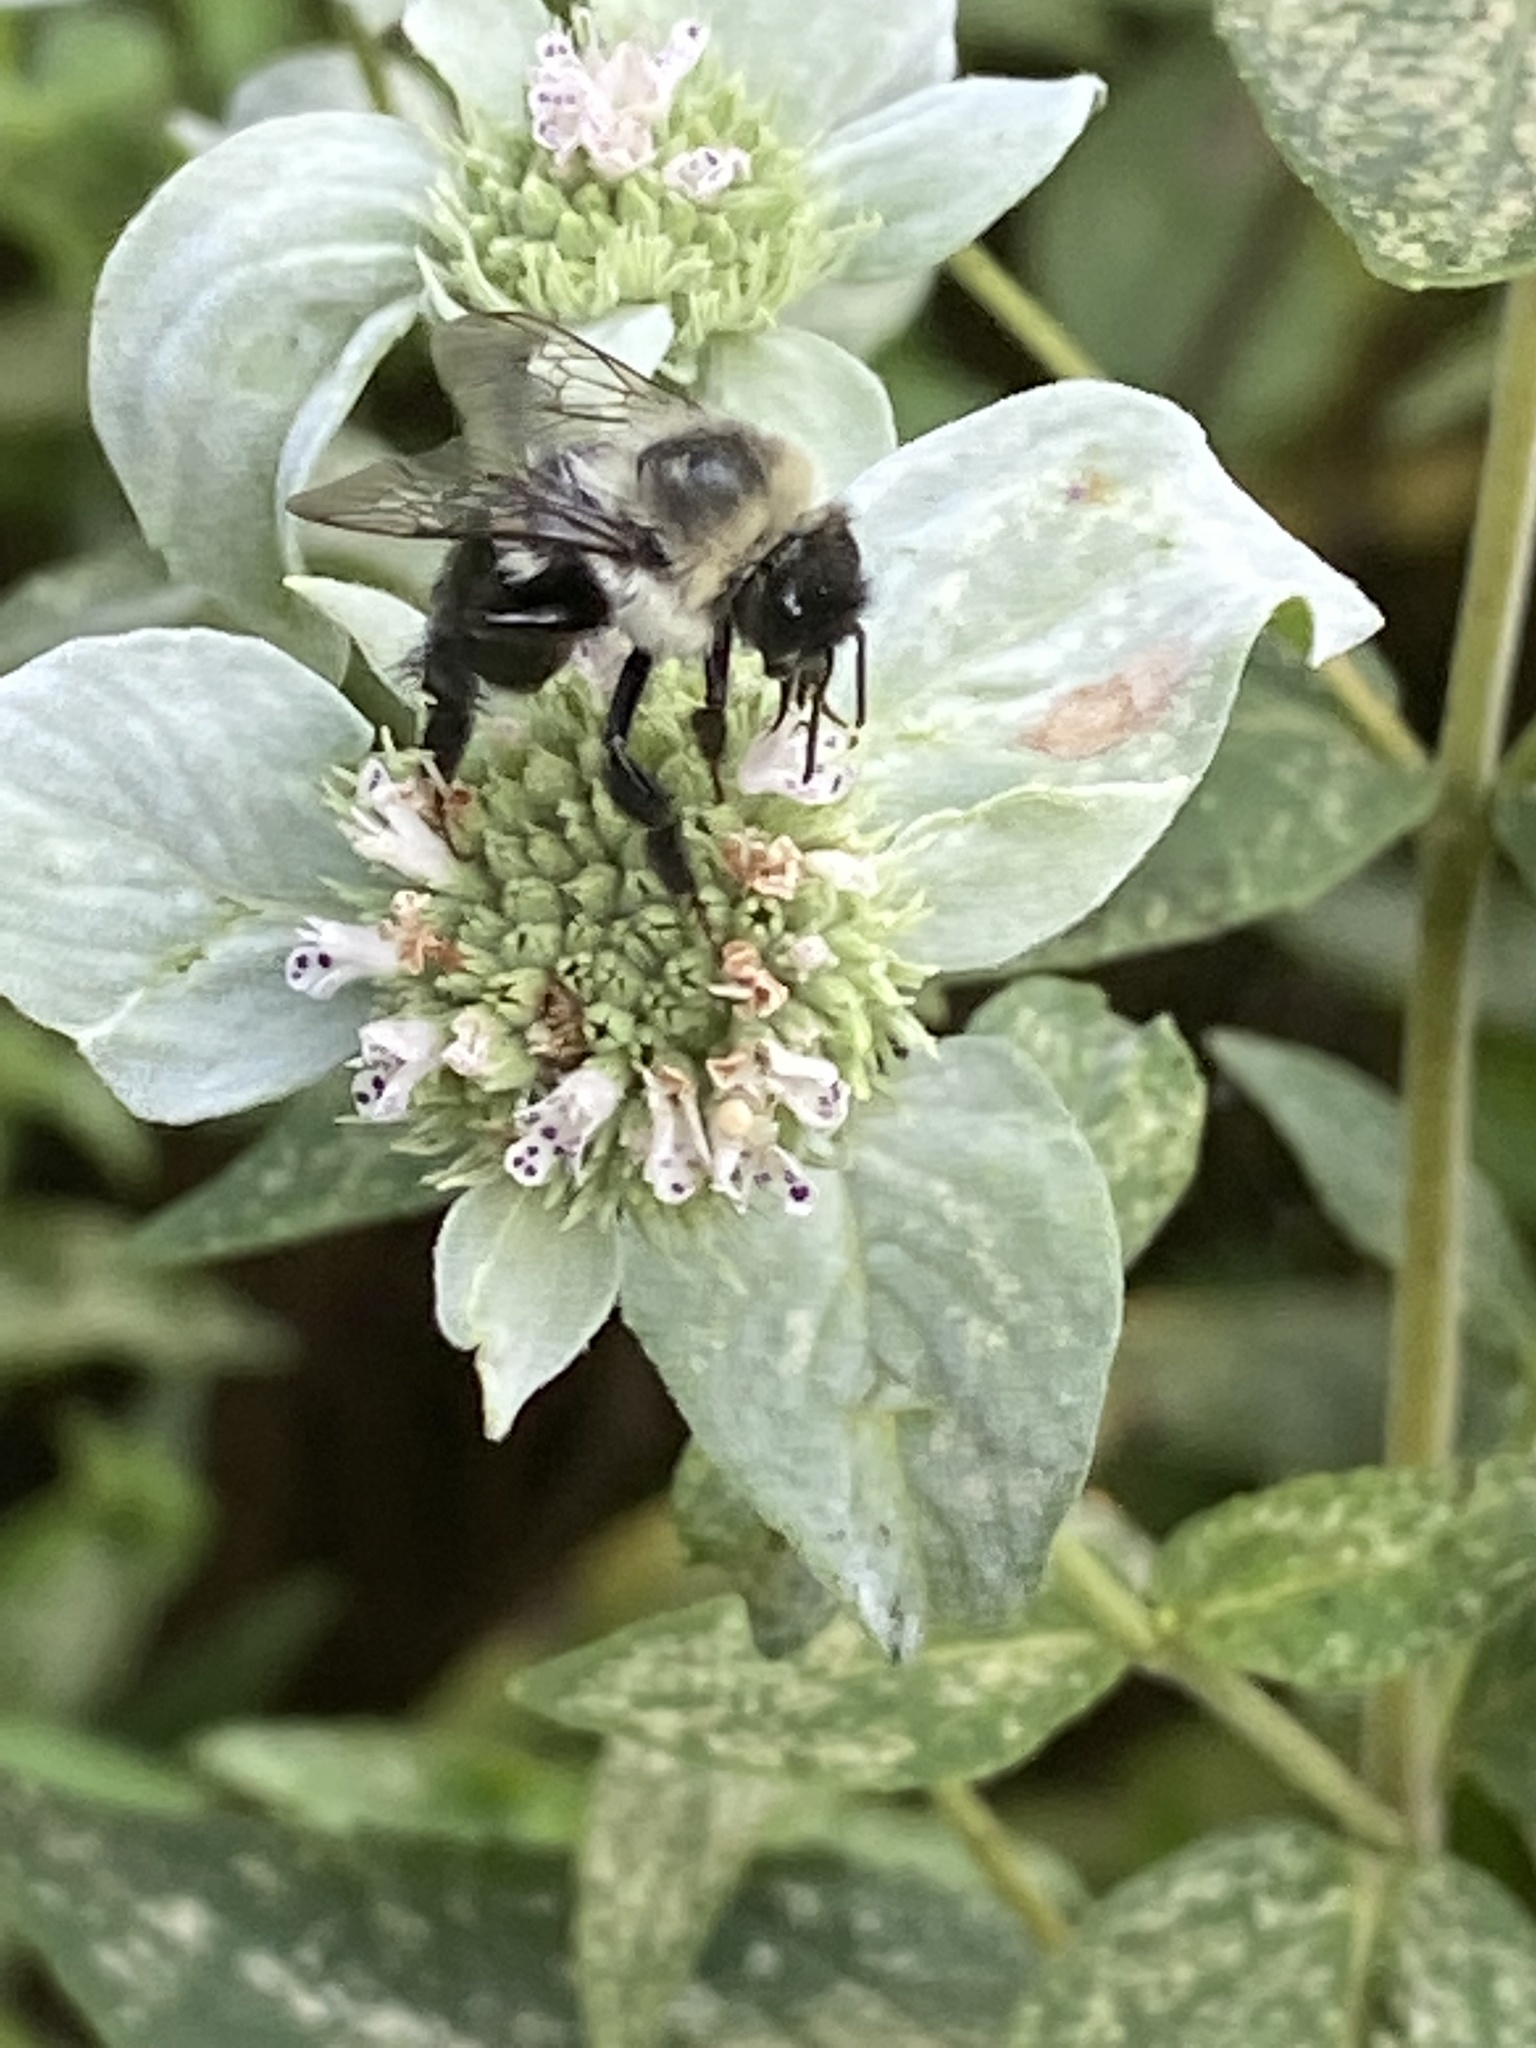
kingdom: Animalia
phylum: Arthropoda
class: Insecta
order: Hymenoptera
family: Apidae
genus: Bombus
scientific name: Bombus impatiens
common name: Common eastern bumble bee
